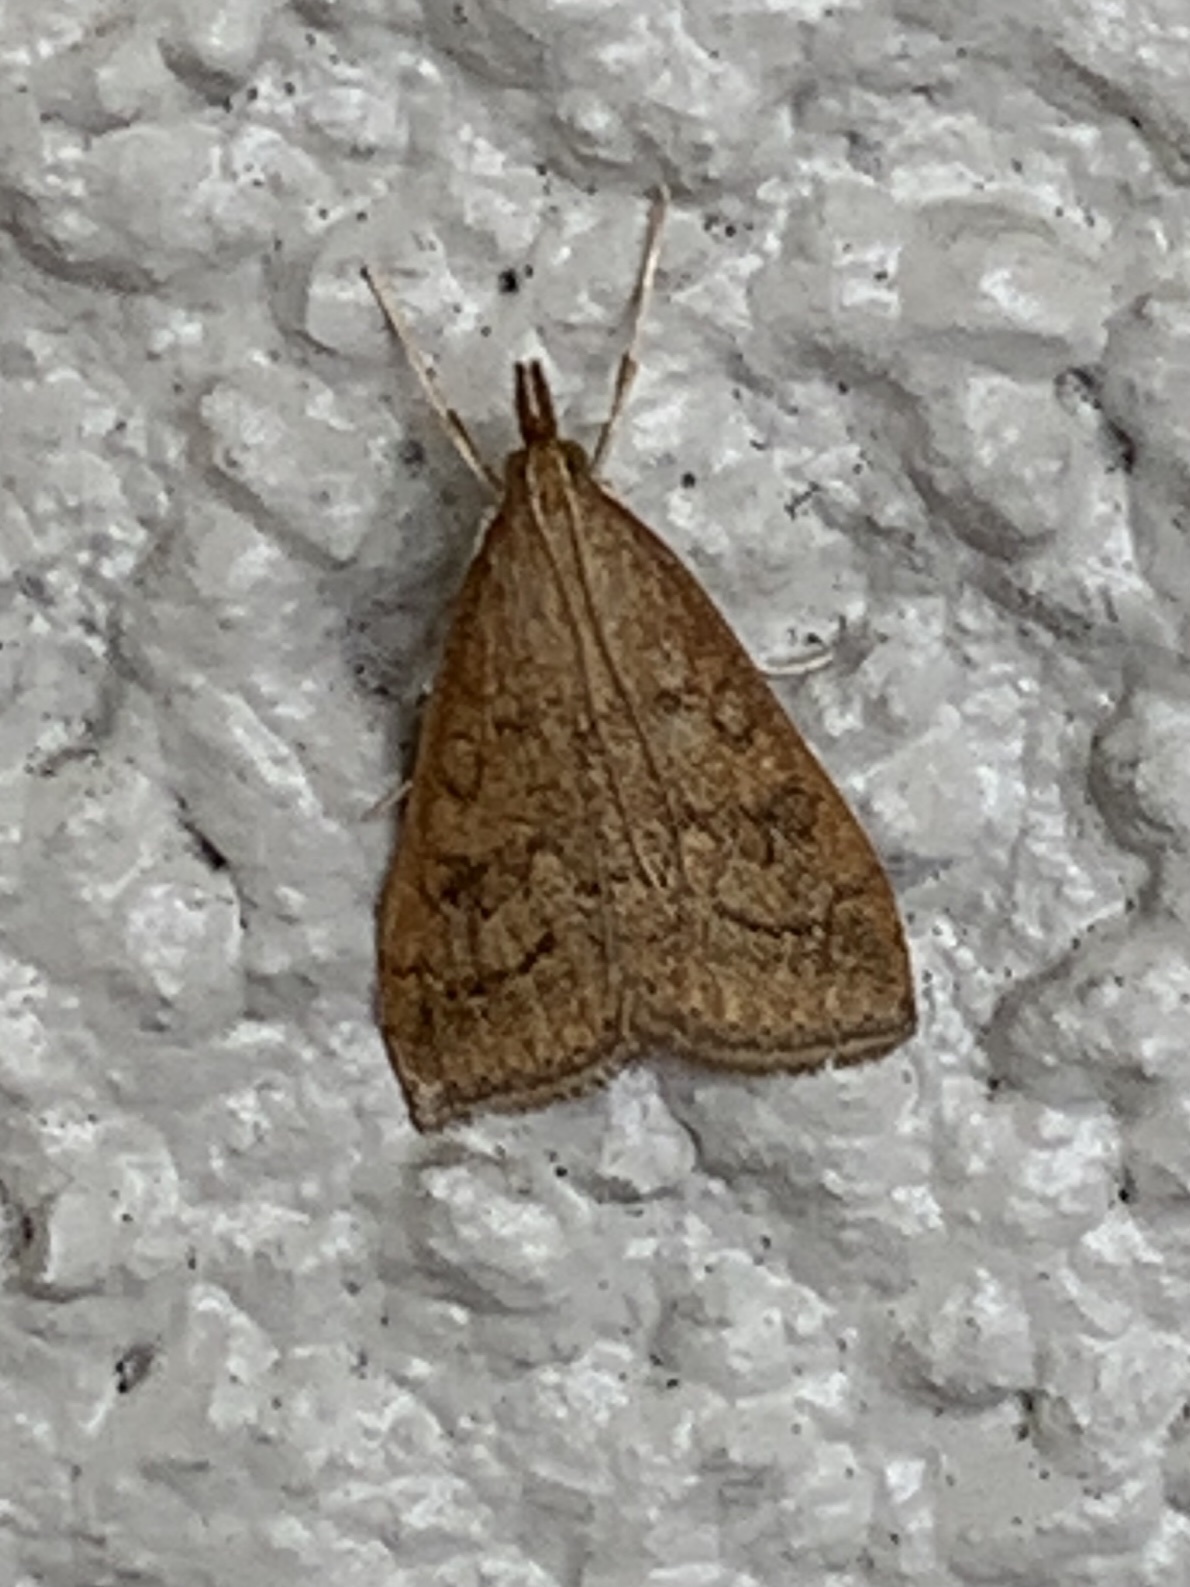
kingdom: Animalia
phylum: Arthropoda
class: Insecta
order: Lepidoptera
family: Crambidae
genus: Udea
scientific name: Udea rubigalis
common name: Celery leaftier moth
